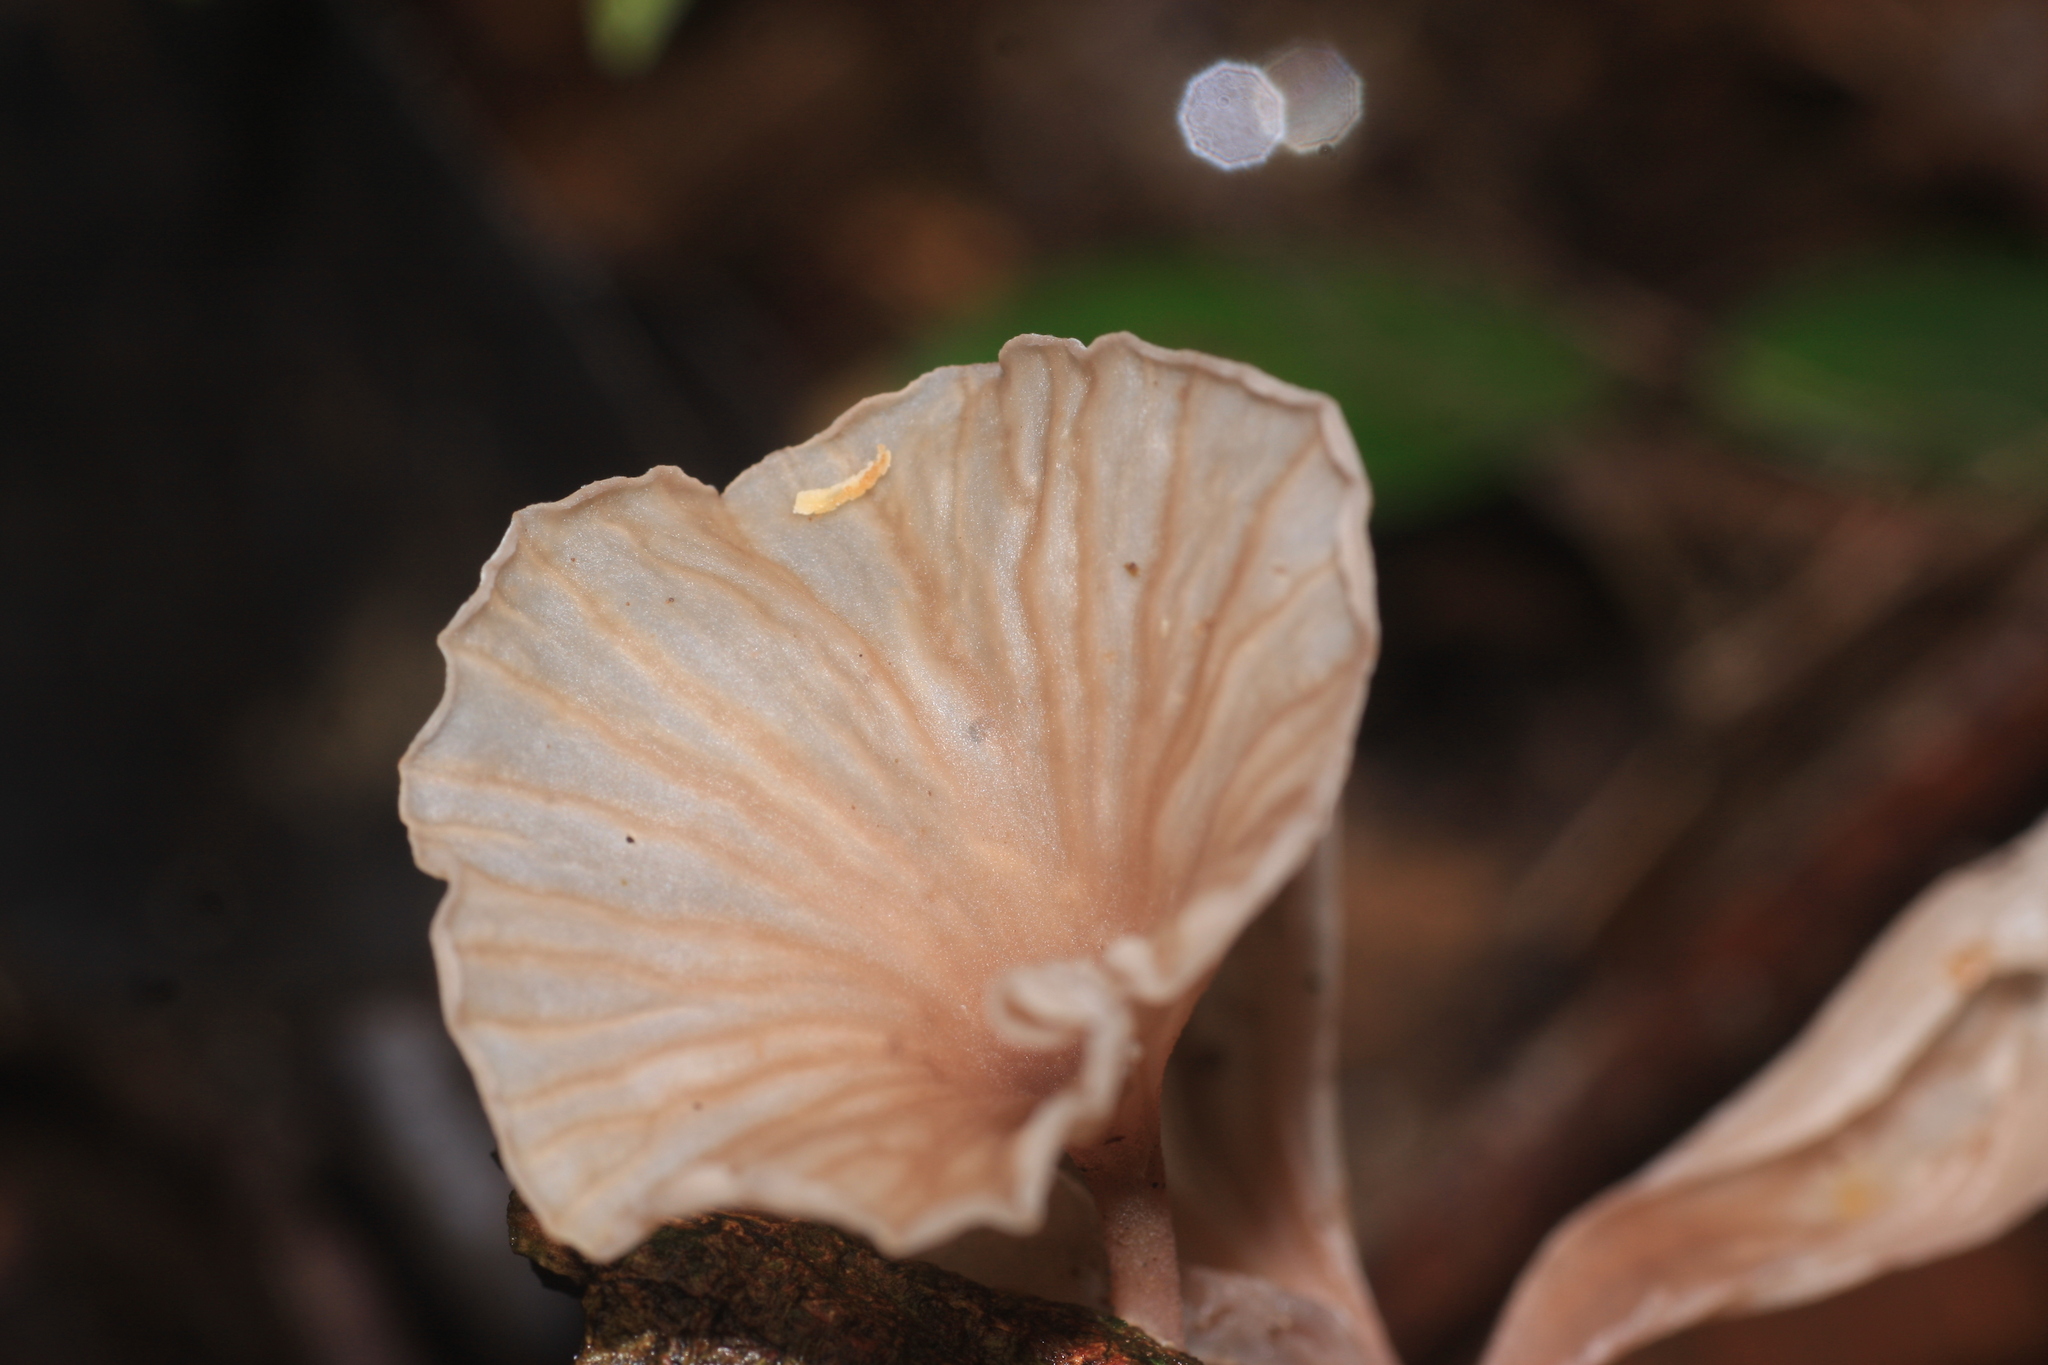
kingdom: Fungi
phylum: Basidiomycota
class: Agaricomycetes
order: Agaricales
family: Omphalotaceae
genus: Marasmiellus
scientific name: Marasmiellus candidus
